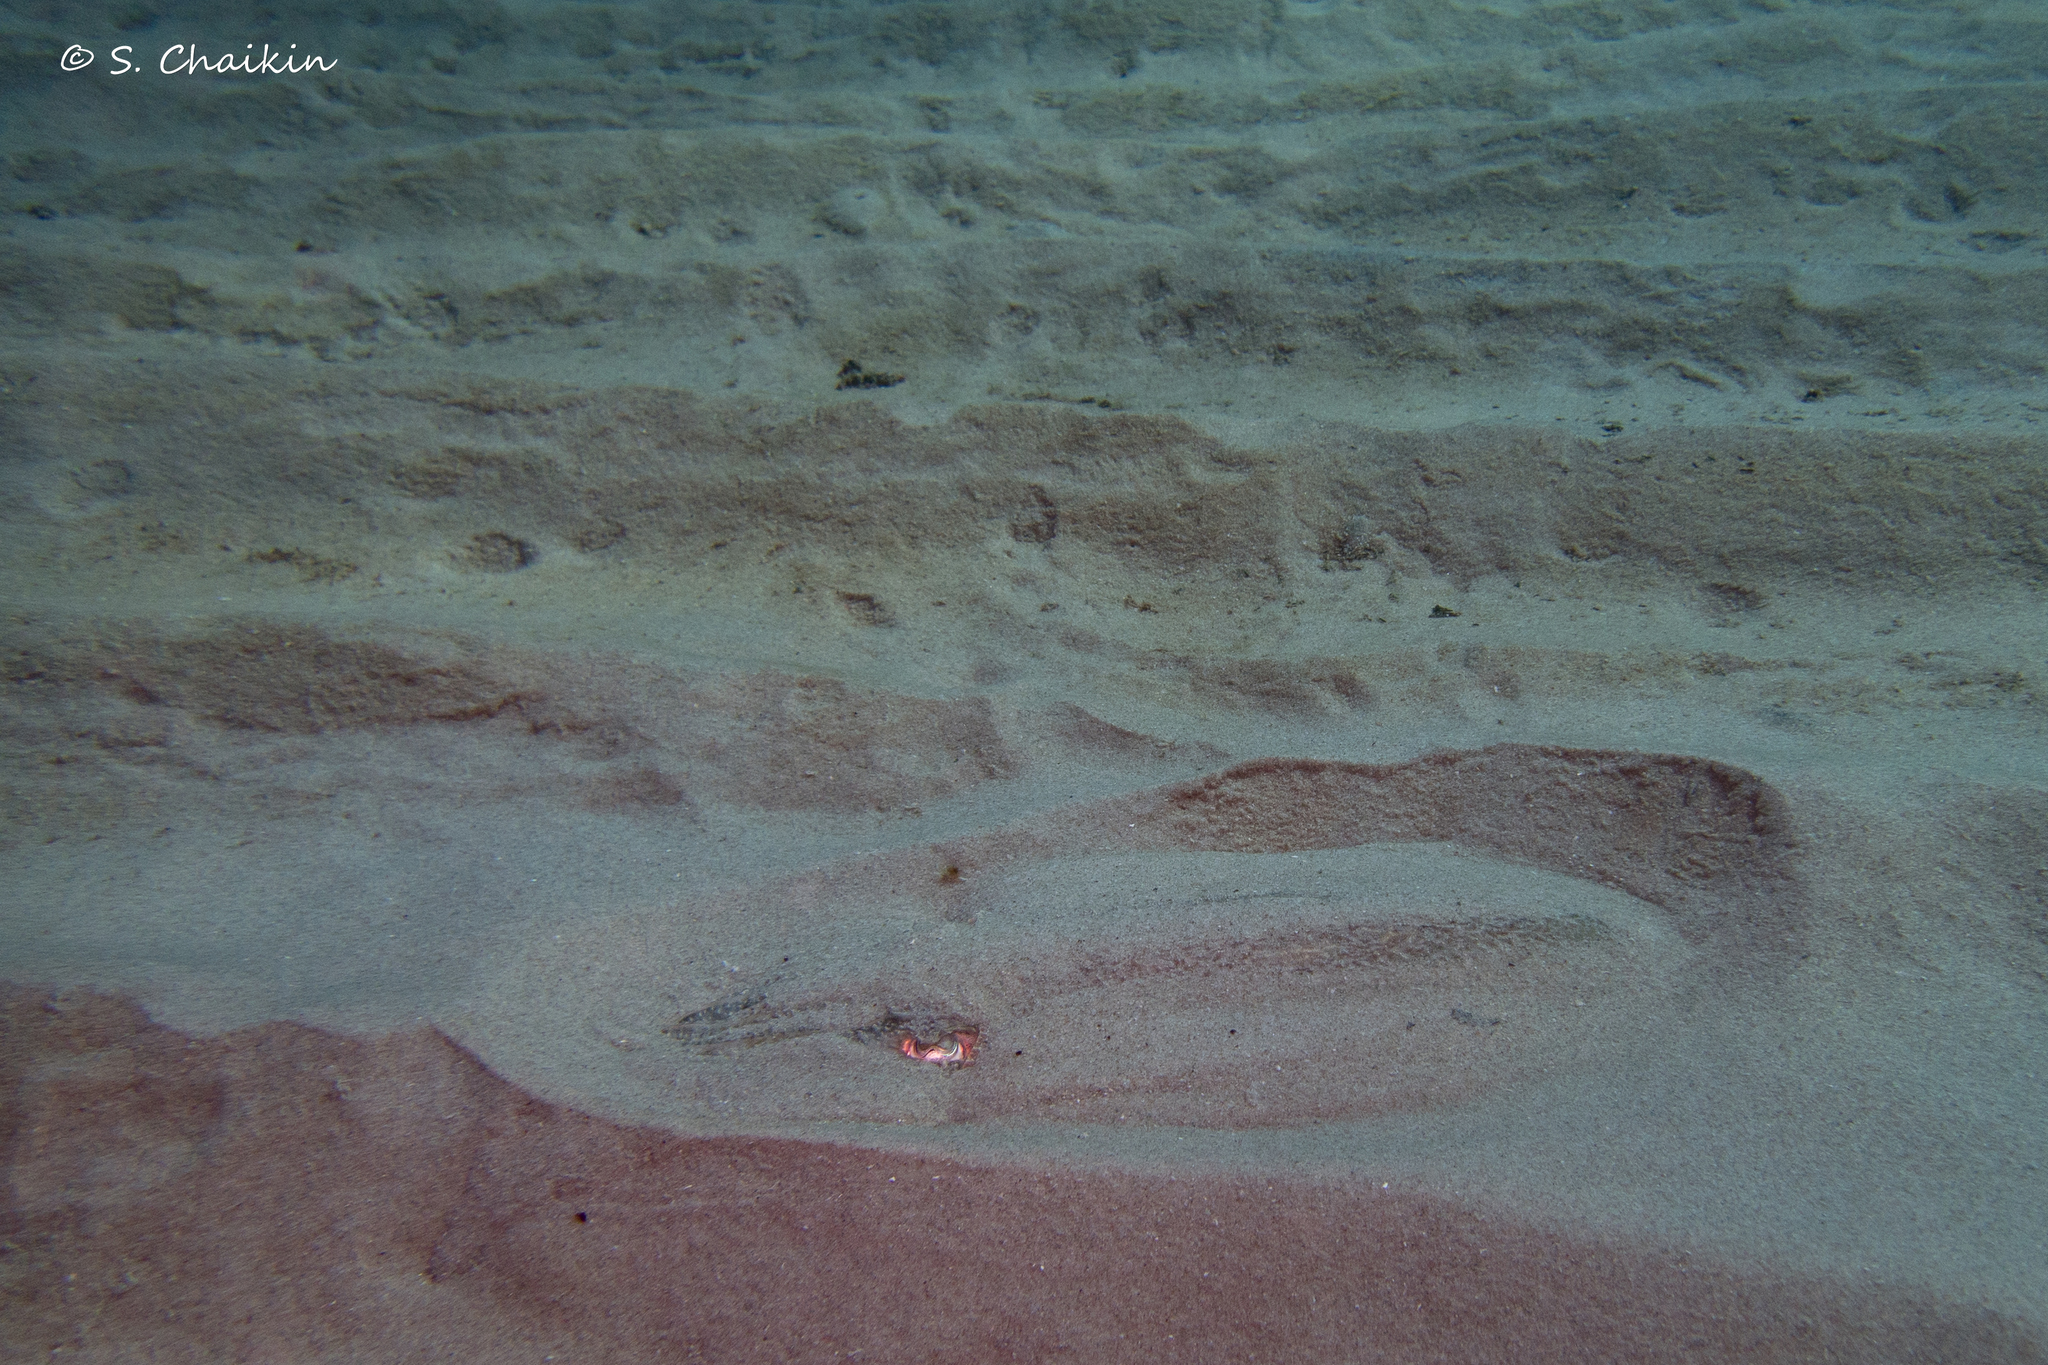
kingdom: Animalia
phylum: Mollusca
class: Cephalopoda
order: Sepiida
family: Sepiidae
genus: Sepia
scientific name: Sepia officinalis
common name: Common cuttlefish
